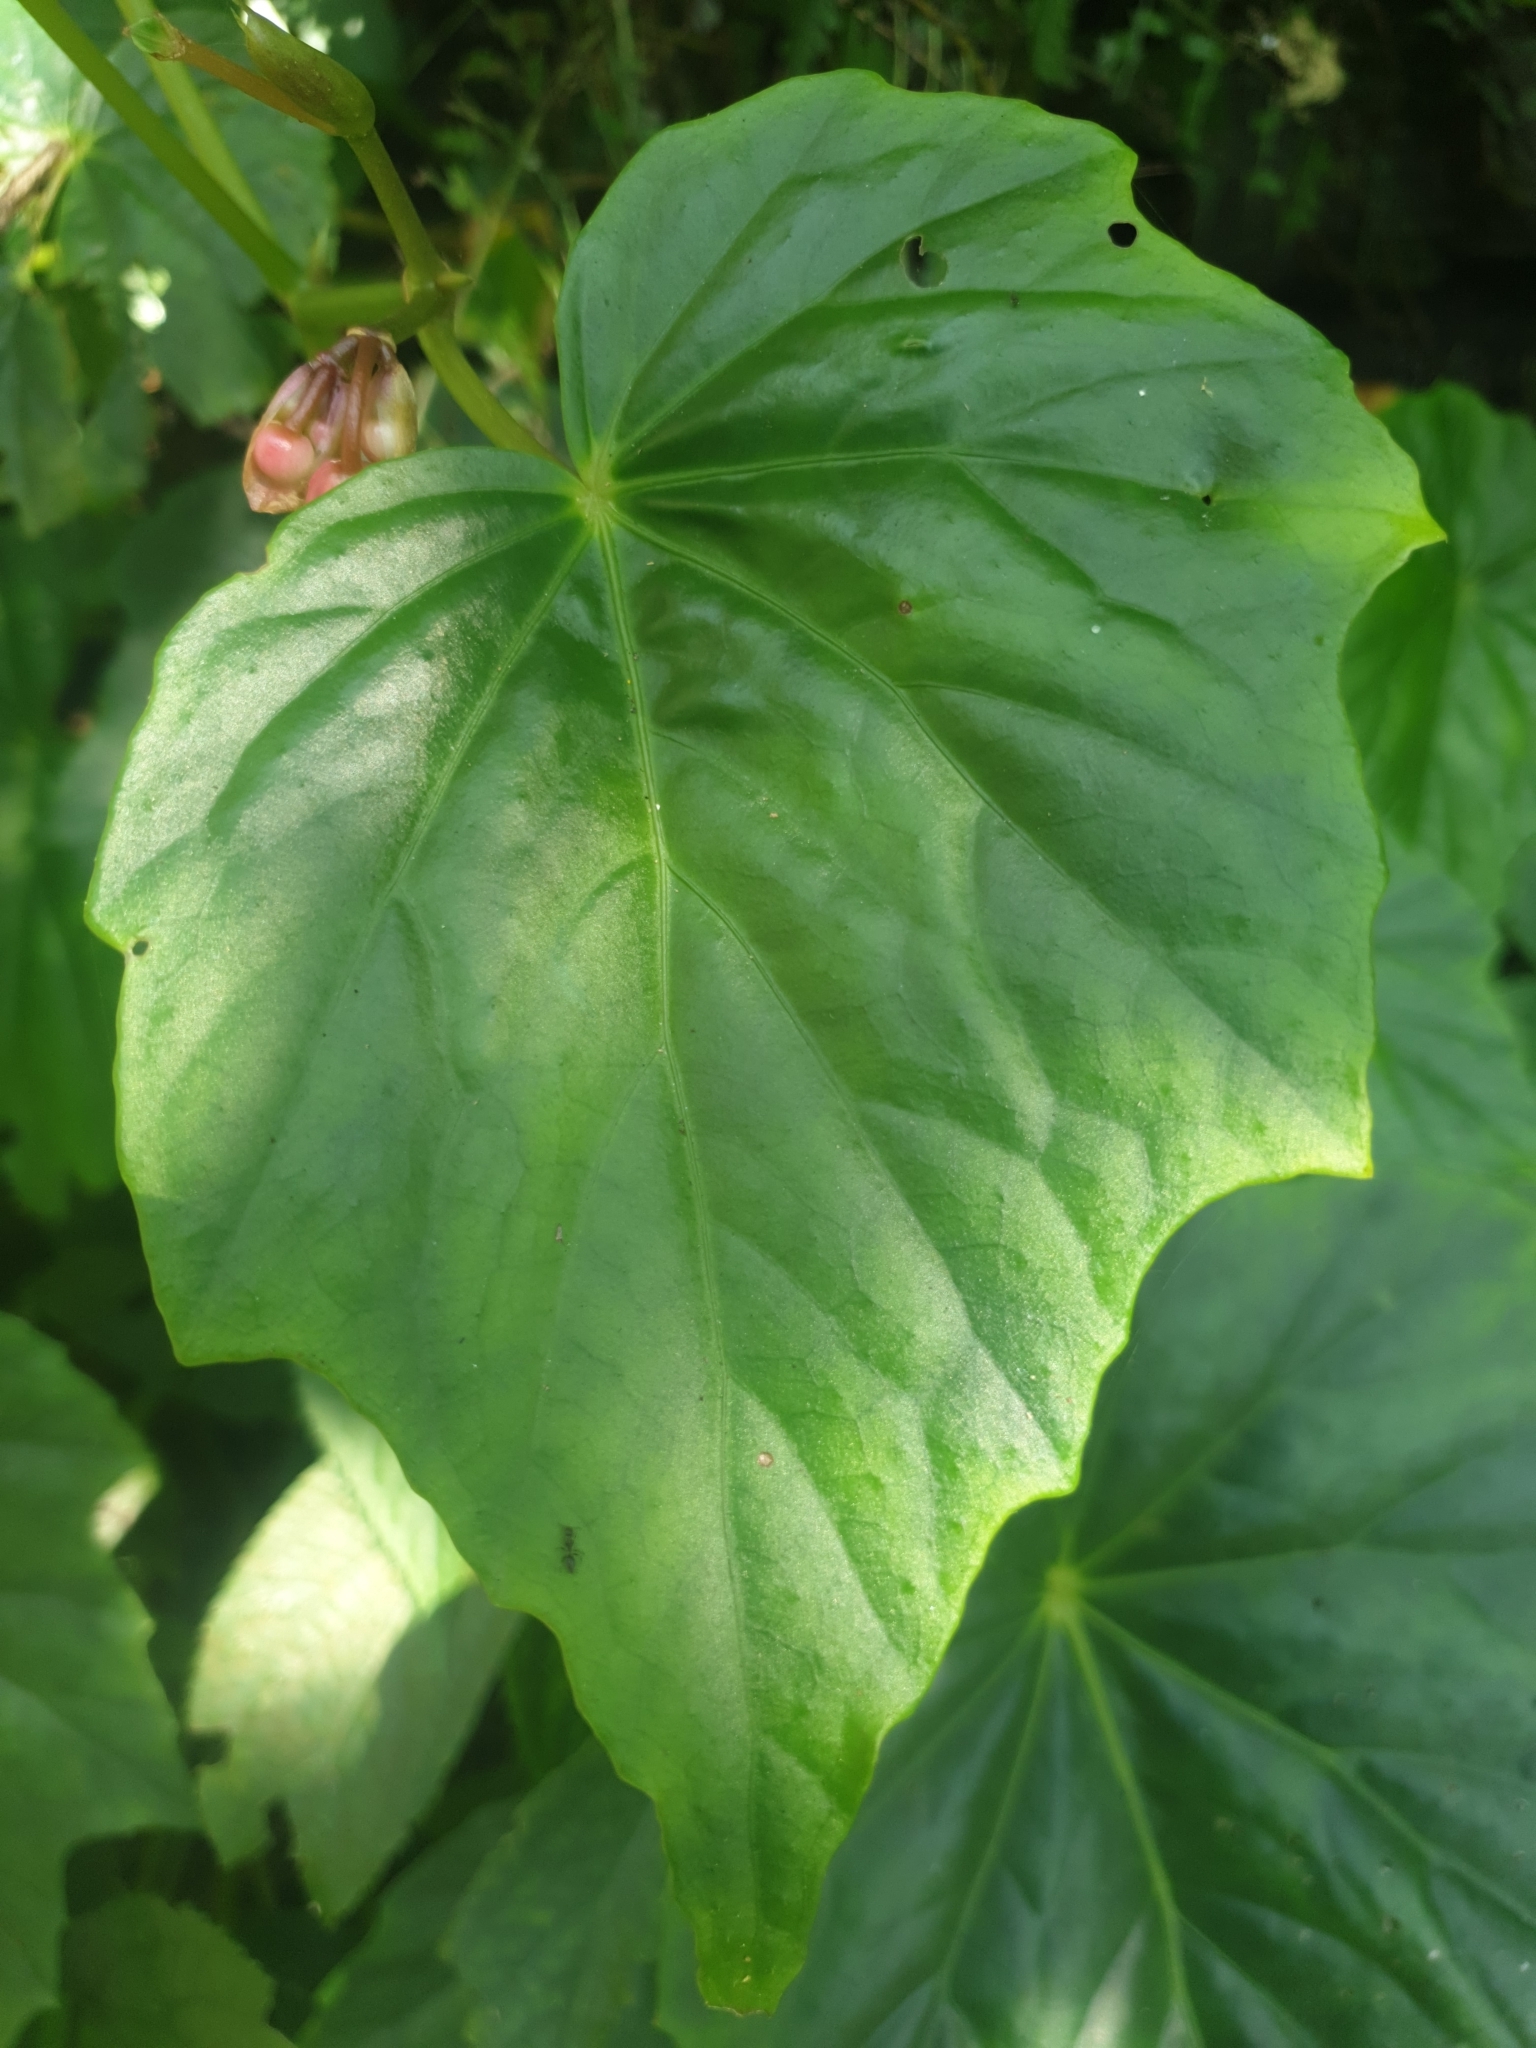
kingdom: Plantae
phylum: Tracheophyta
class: Magnoliopsida
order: Cucurbitales
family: Begoniaceae
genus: Begonia
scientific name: Begonia formosana
